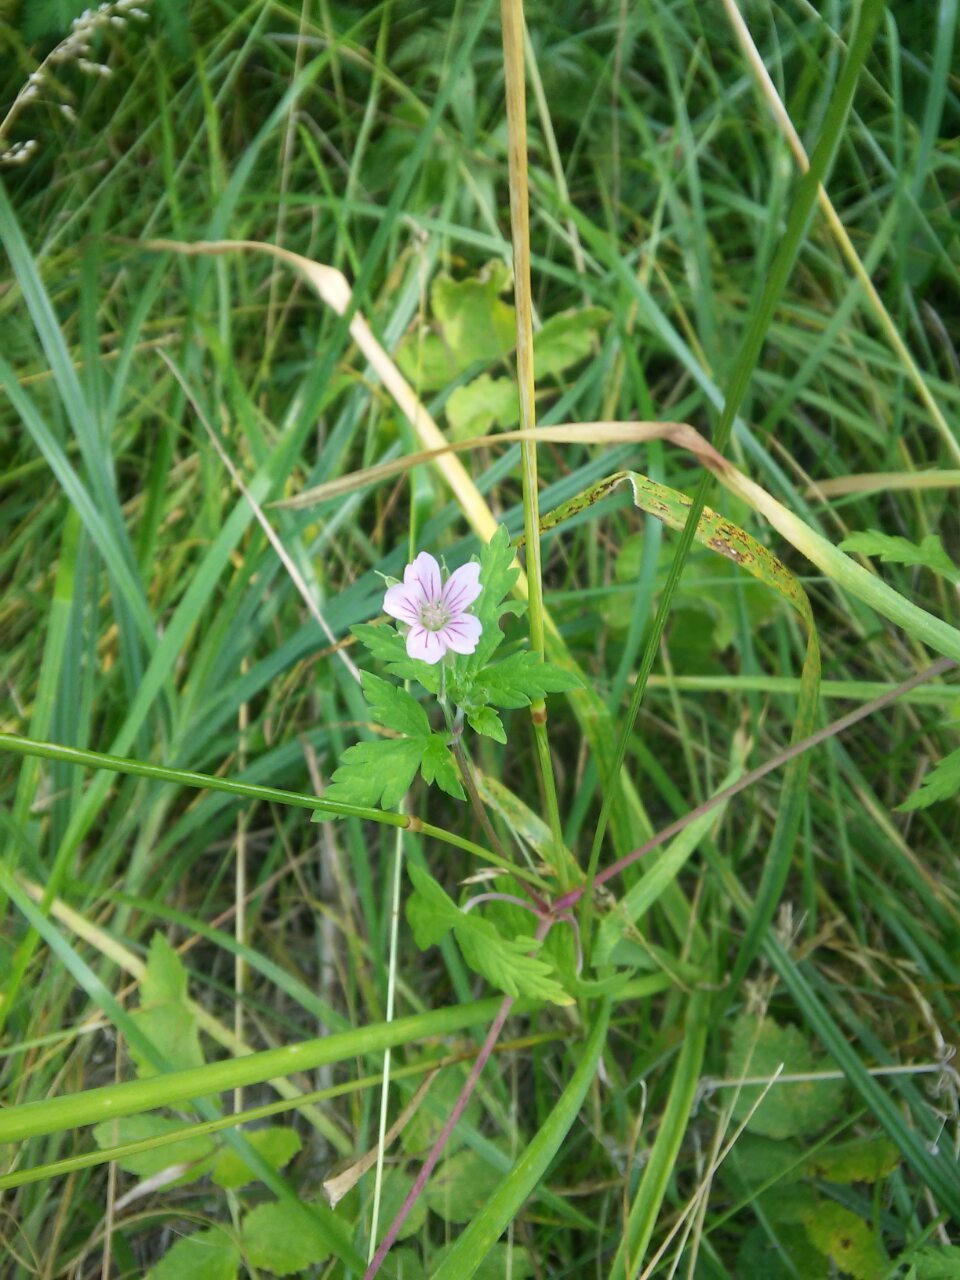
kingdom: Plantae
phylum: Tracheophyta
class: Magnoliopsida
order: Geraniales
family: Geraniaceae
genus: Geranium
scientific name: Geranium sibiricum
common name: Siberian crane's-bill
